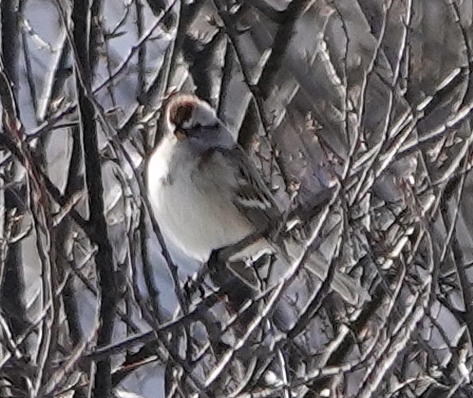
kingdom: Animalia
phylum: Chordata
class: Aves
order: Passeriformes
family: Passerellidae
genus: Spizelloides
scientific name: Spizelloides arborea
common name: American tree sparrow
